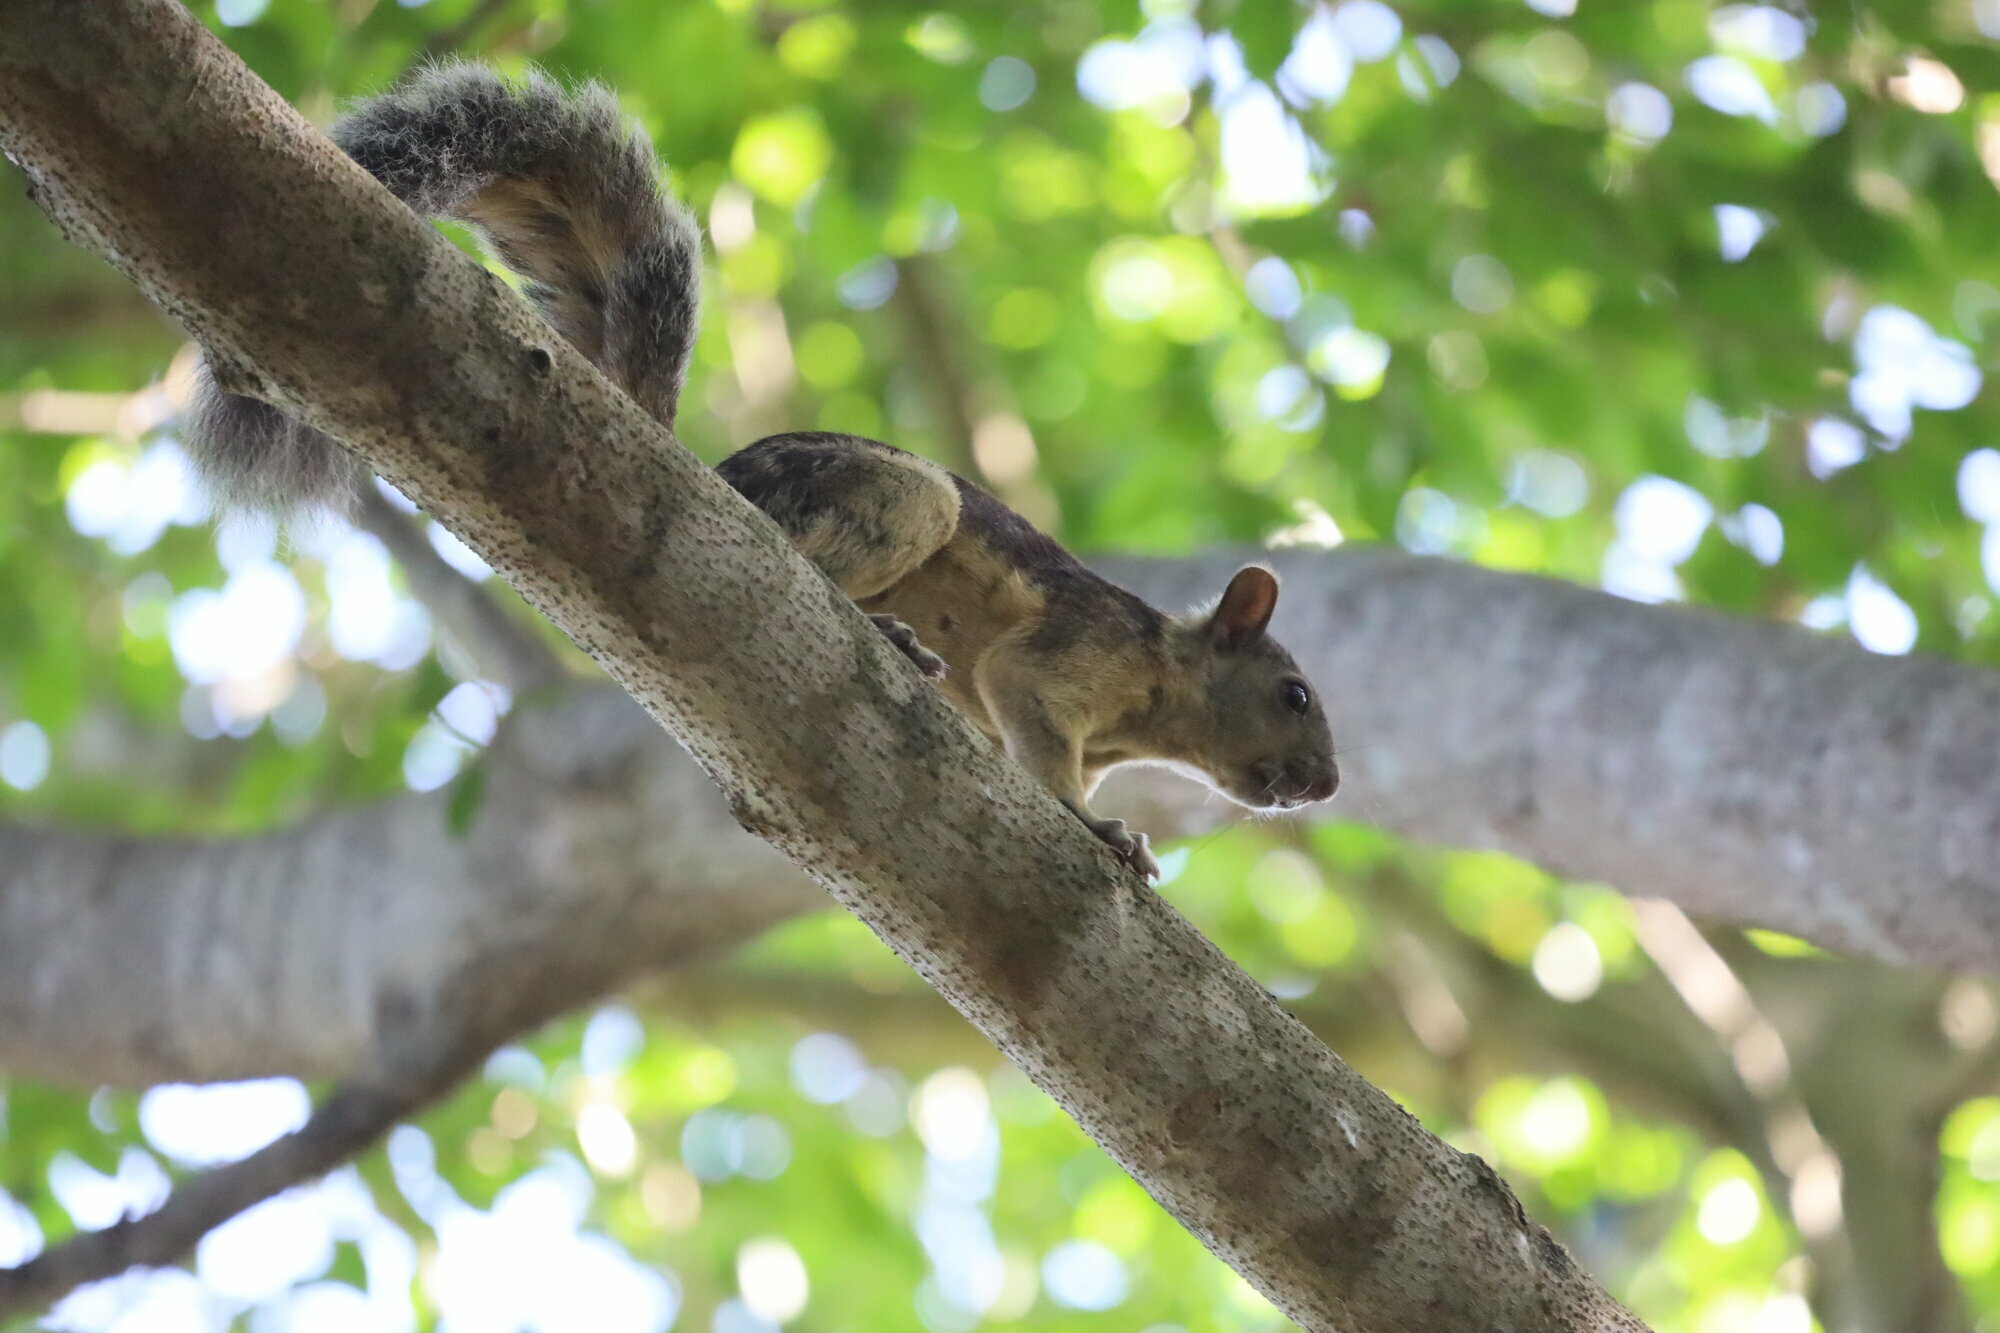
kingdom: Animalia
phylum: Chordata
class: Mammalia
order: Rodentia
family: Sciuridae
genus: Sciurus
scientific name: Sciurus variegatoides
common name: Variegated squirrel
